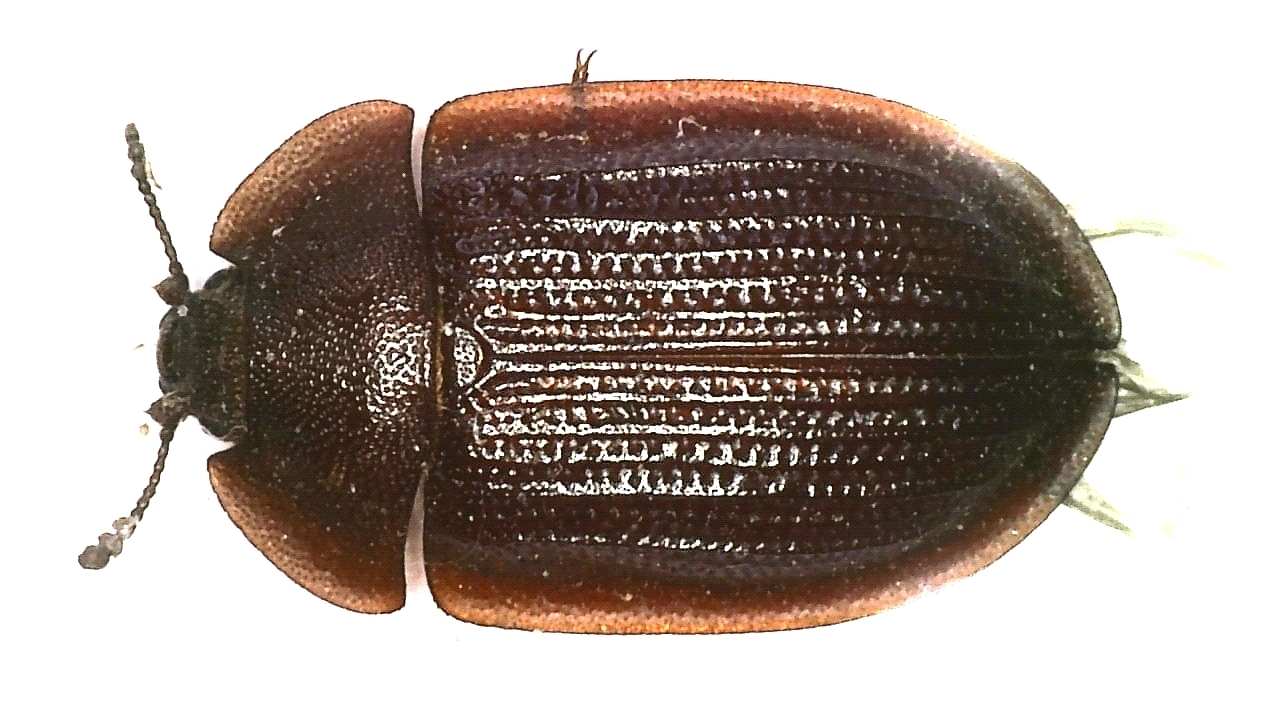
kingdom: Animalia
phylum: Arthropoda
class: Insecta
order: Coleoptera
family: Trogossitidae
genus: Peltis
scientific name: Peltis ferruginea
